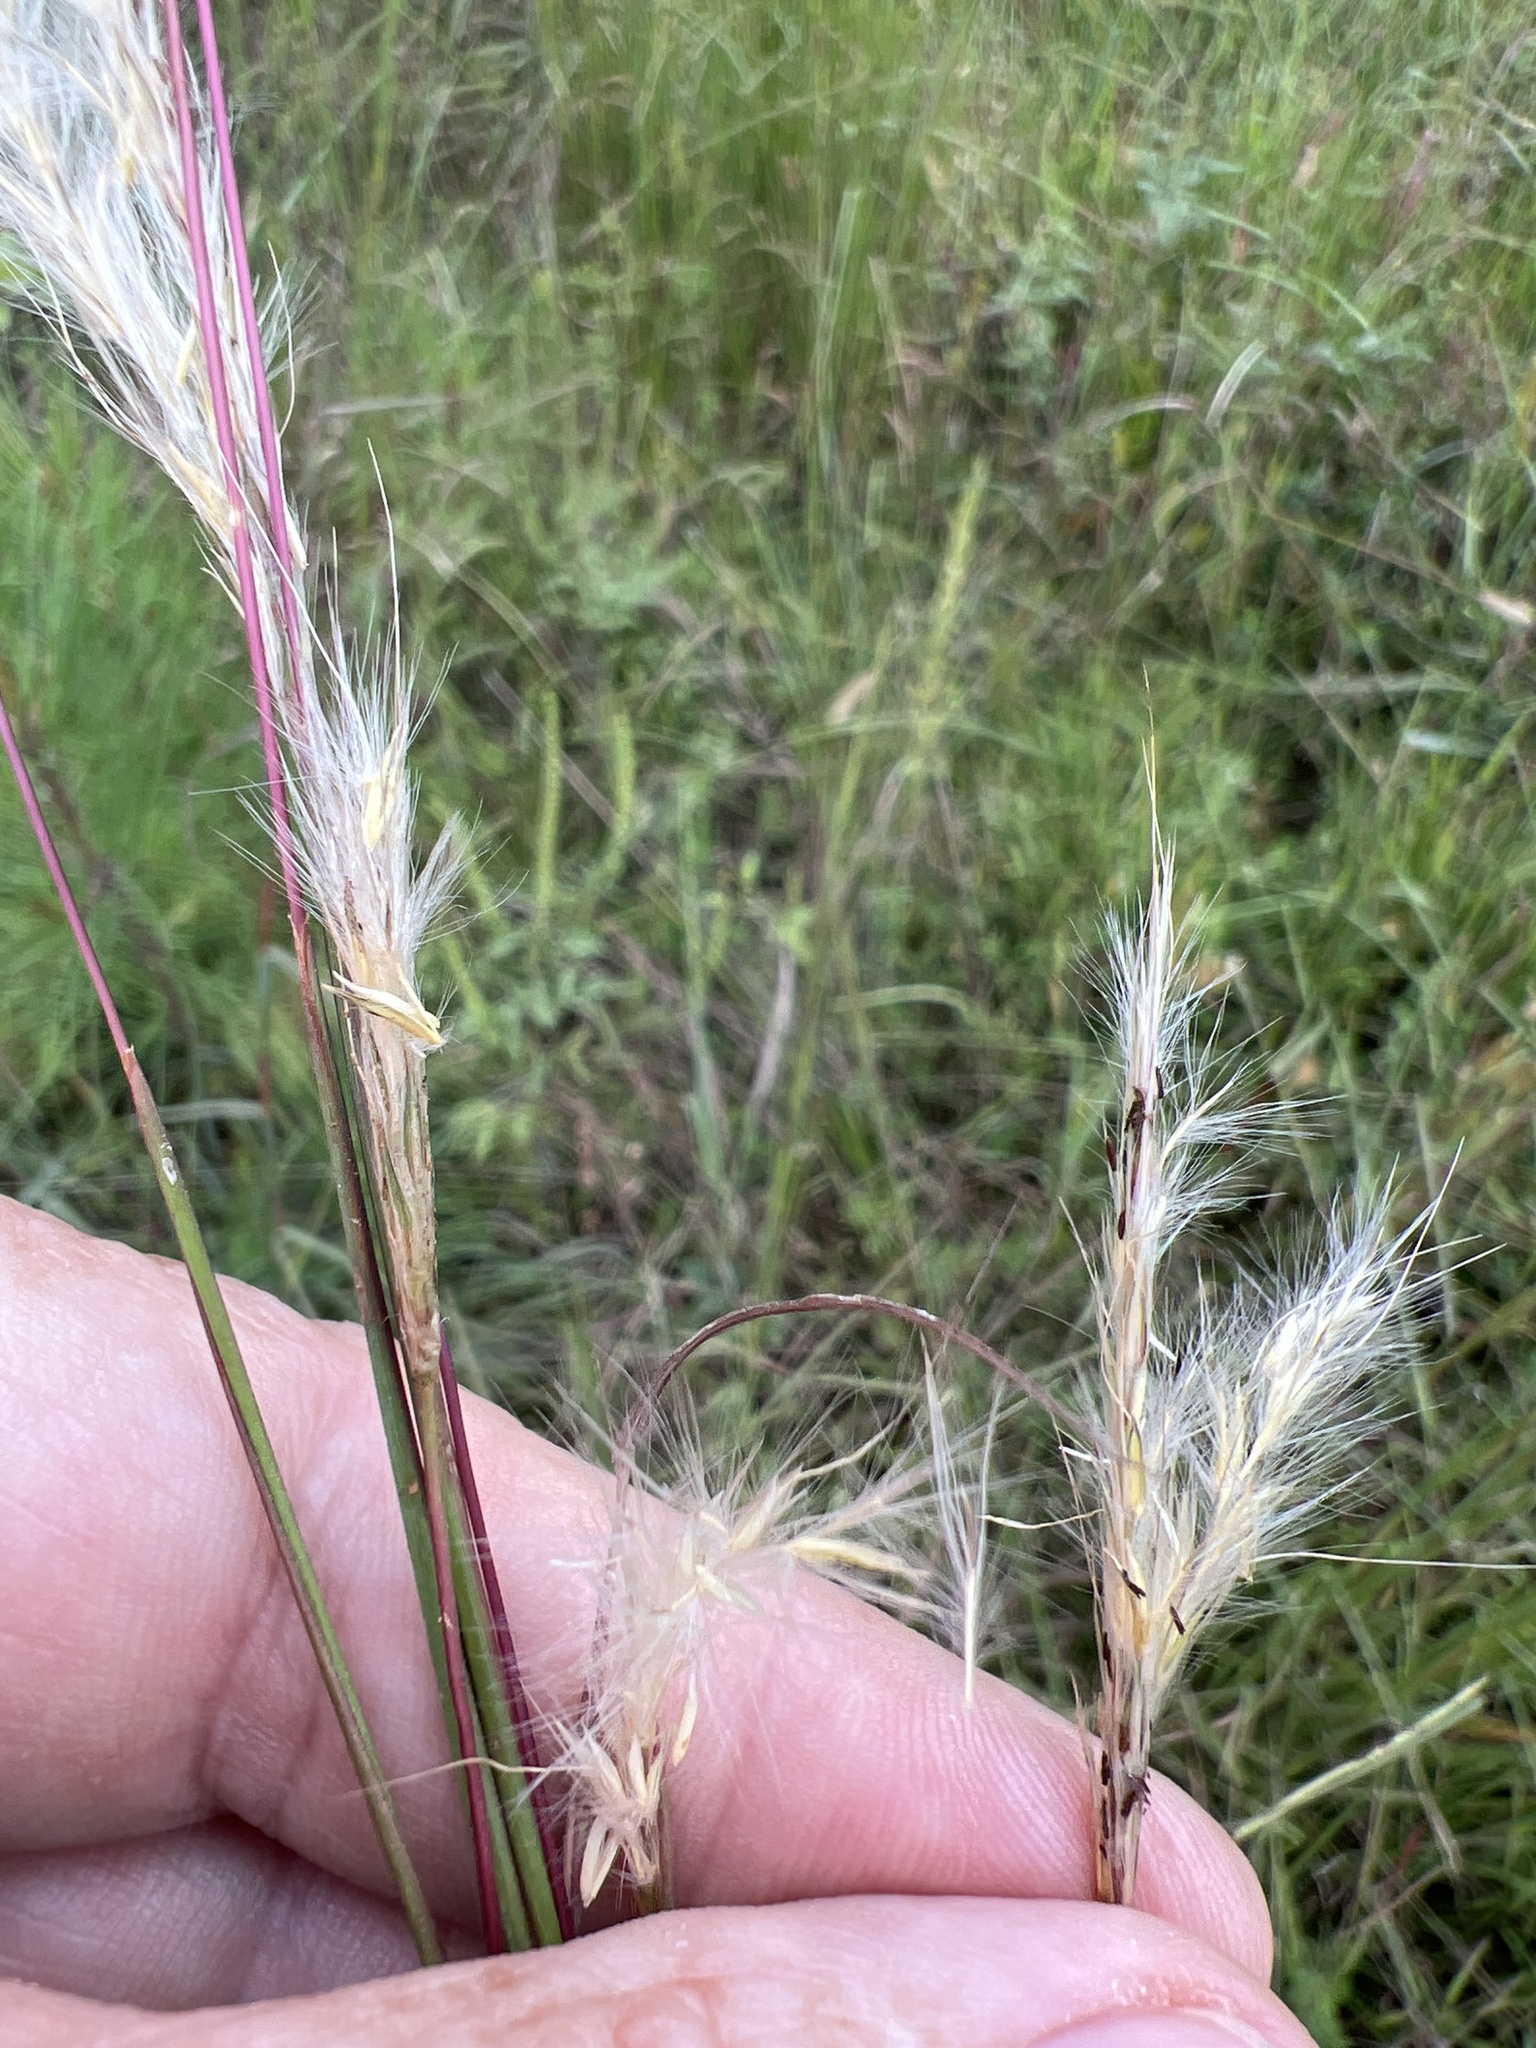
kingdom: Plantae
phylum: Tracheophyta
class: Liliopsida
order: Poales
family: Poaceae
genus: Andropogon
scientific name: Andropogon ternarius
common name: Split bluestem
